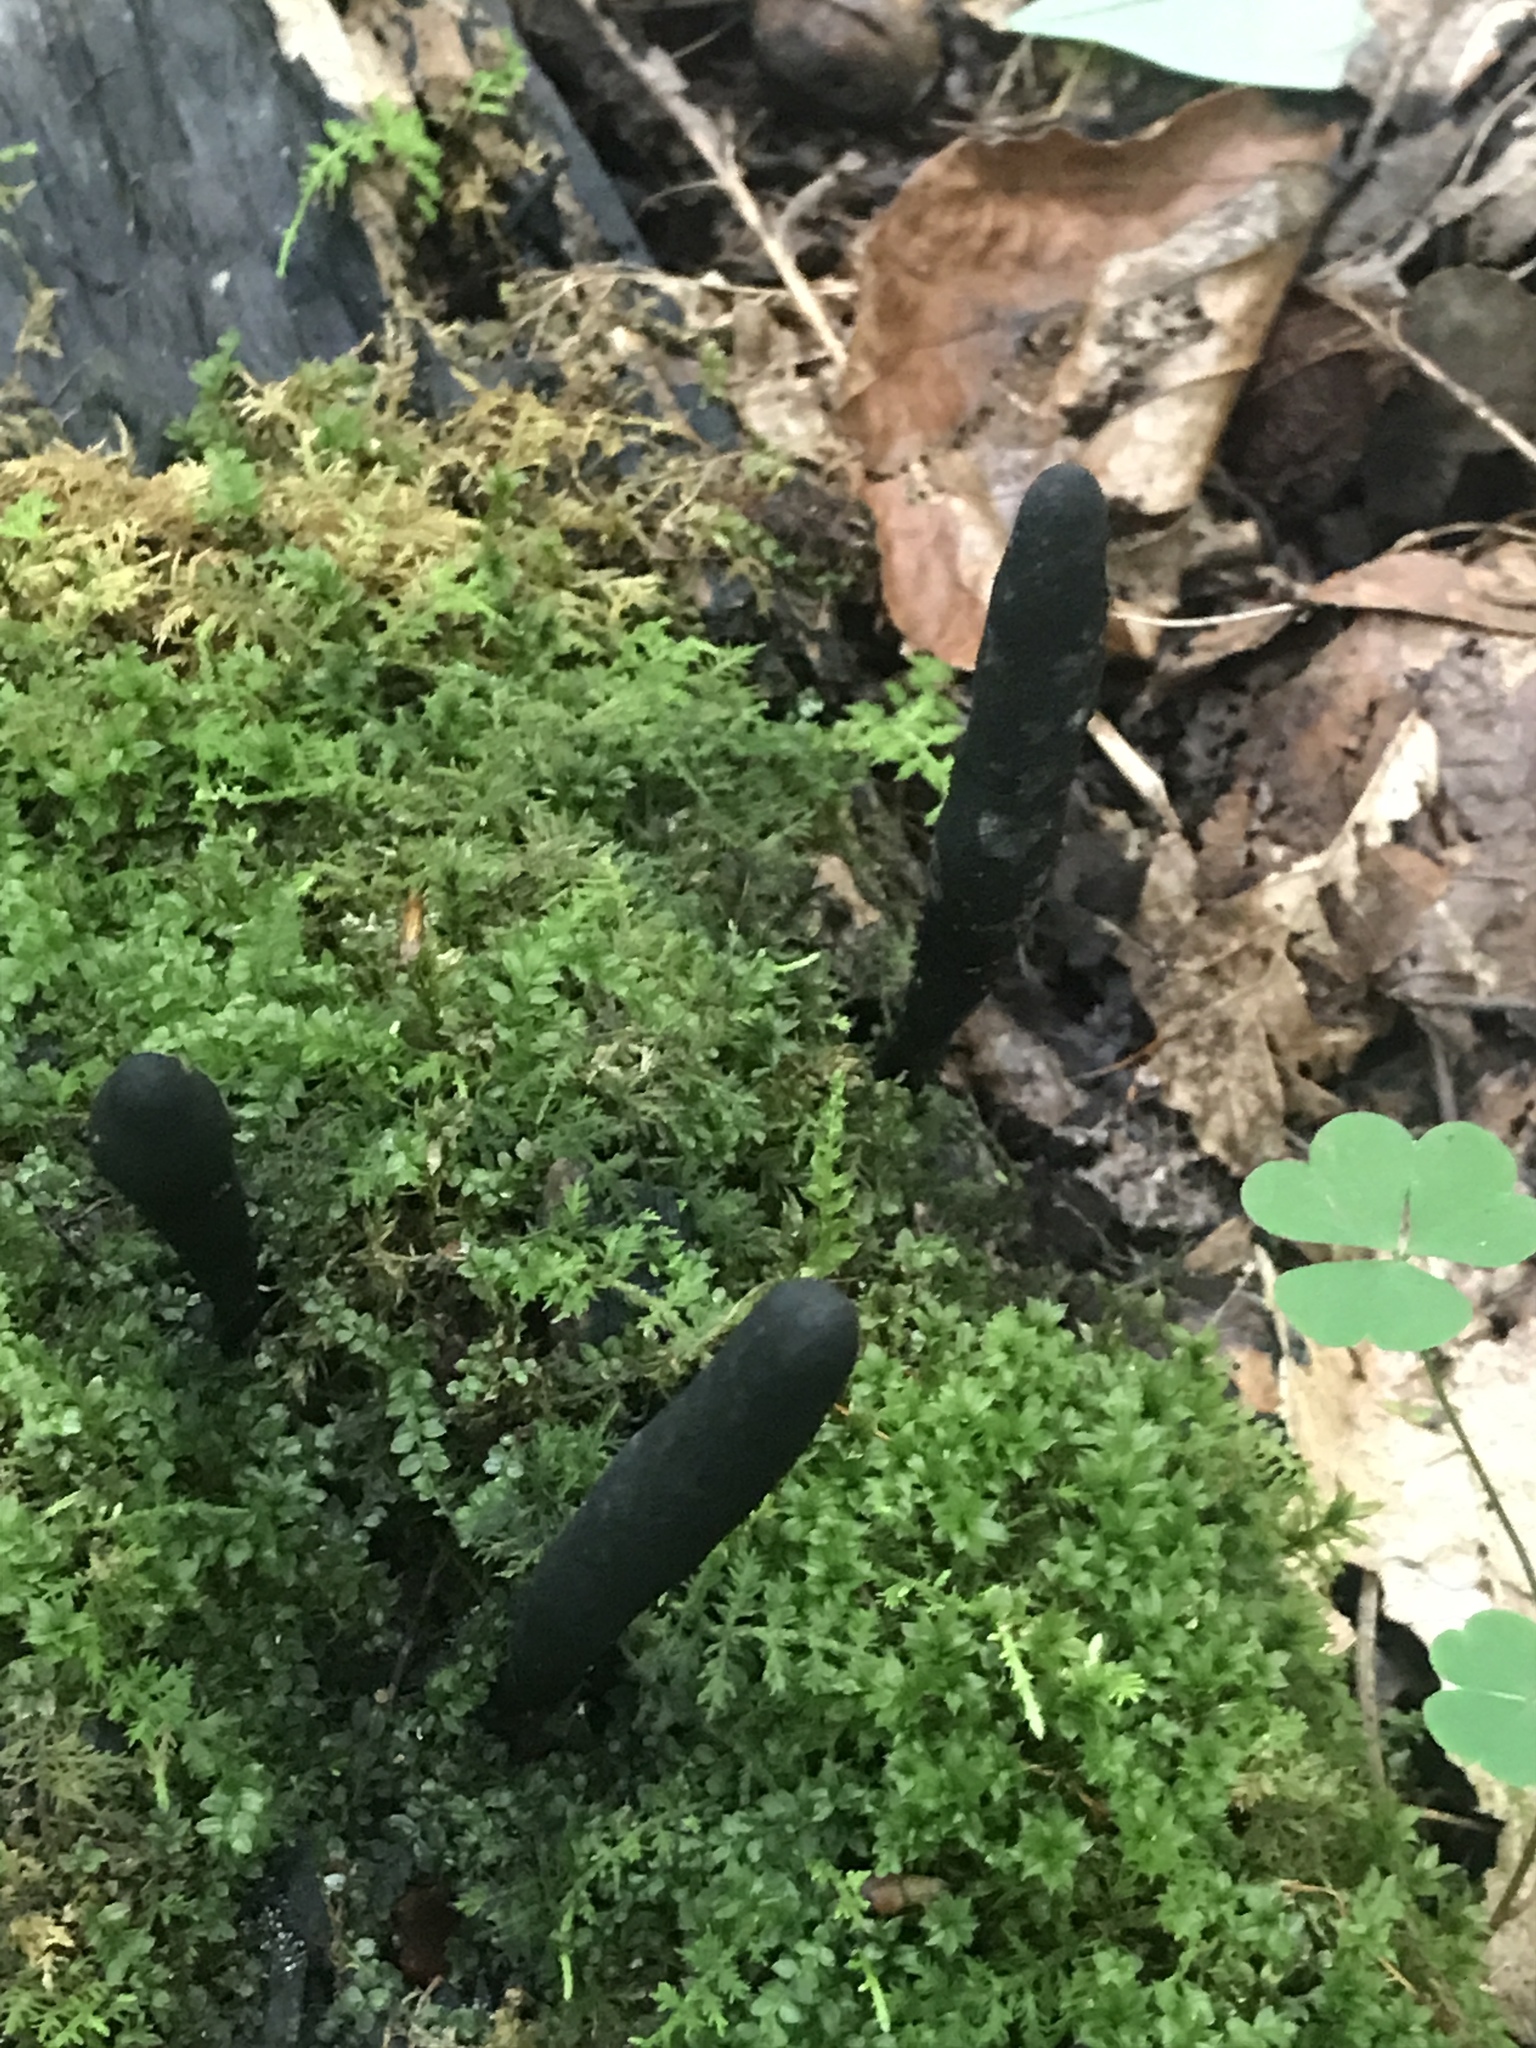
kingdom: Fungi
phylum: Ascomycota
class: Sordariomycetes
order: Xylariales
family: Xylariaceae
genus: Xylaria
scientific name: Xylaria polymorpha
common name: Dead man's fingers
